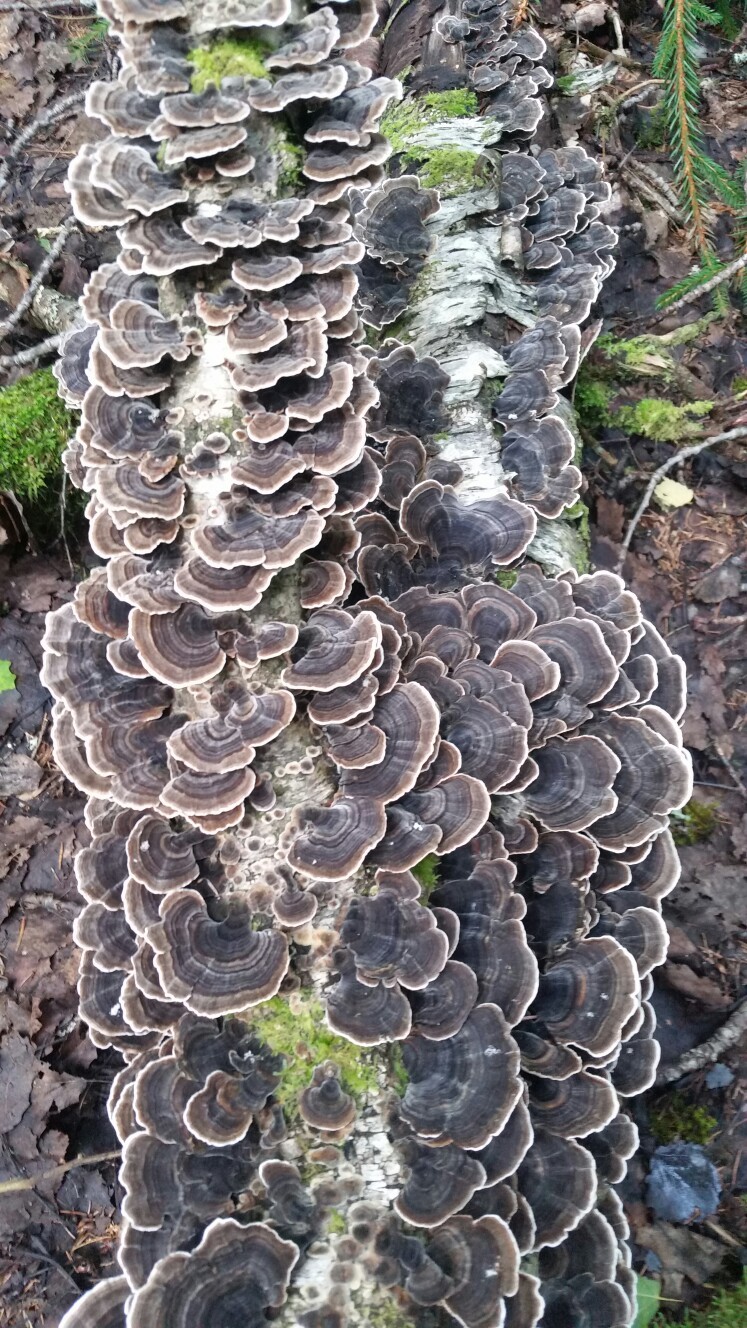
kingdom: Fungi
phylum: Basidiomycota
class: Agaricomycetes
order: Polyporales
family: Polyporaceae
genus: Trametes
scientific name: Trametes versicolor
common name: Turkeytail
